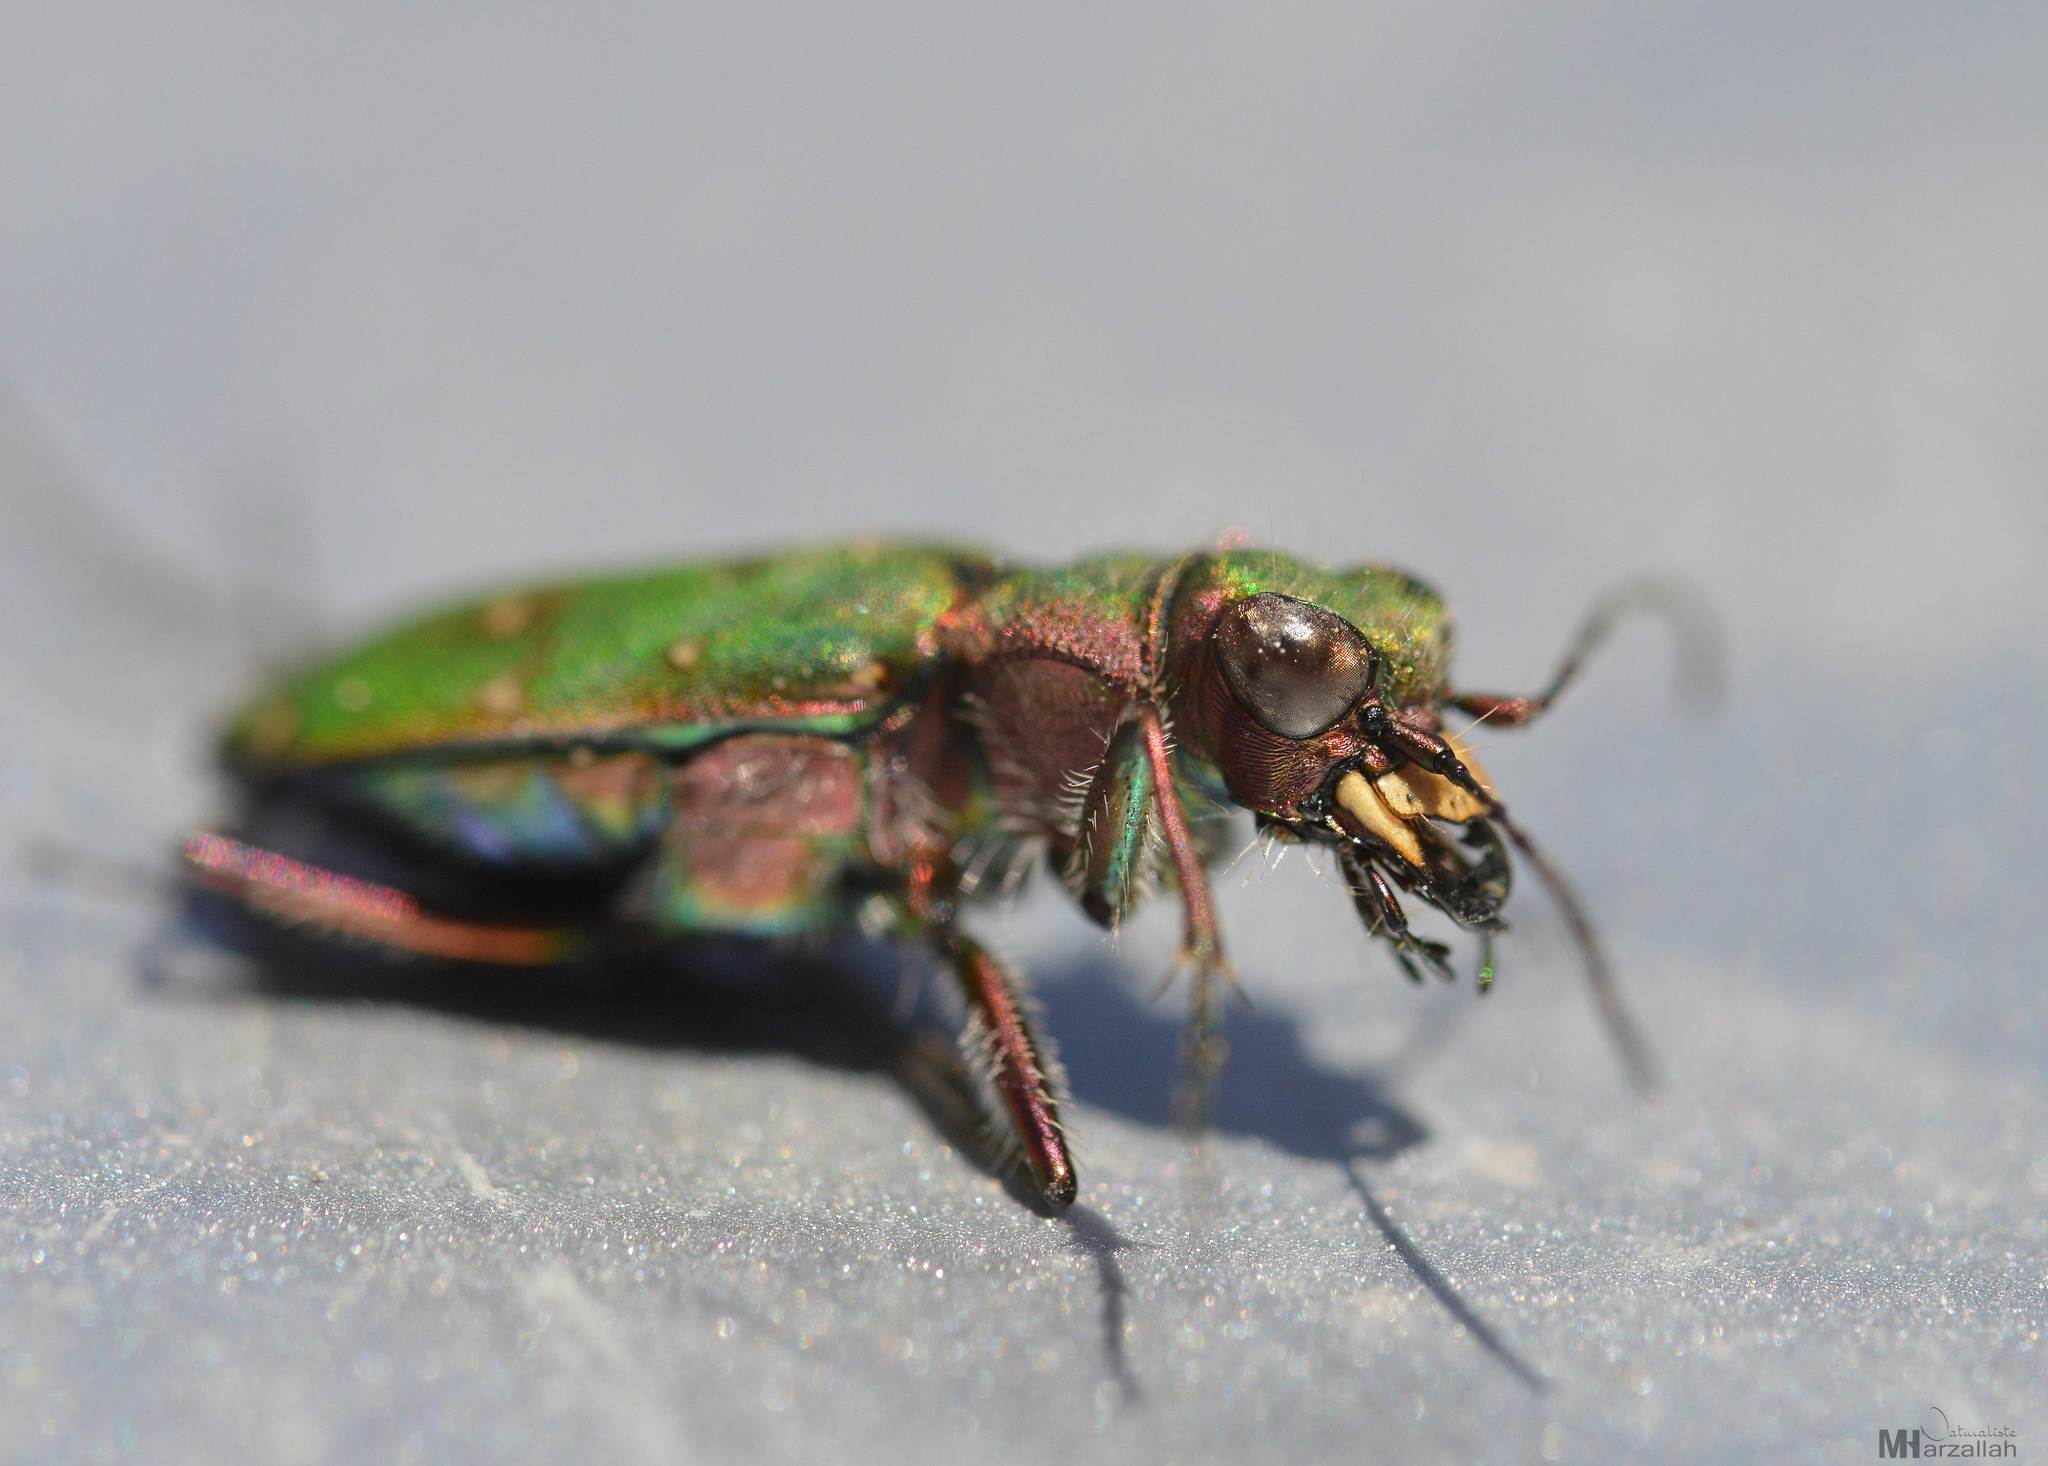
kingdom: Animalia
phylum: Arthropoda
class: Insecta
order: Coleoptera
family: Carabidae
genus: Cicindela
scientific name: Cicindela campestris
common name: Common tiger beetle
